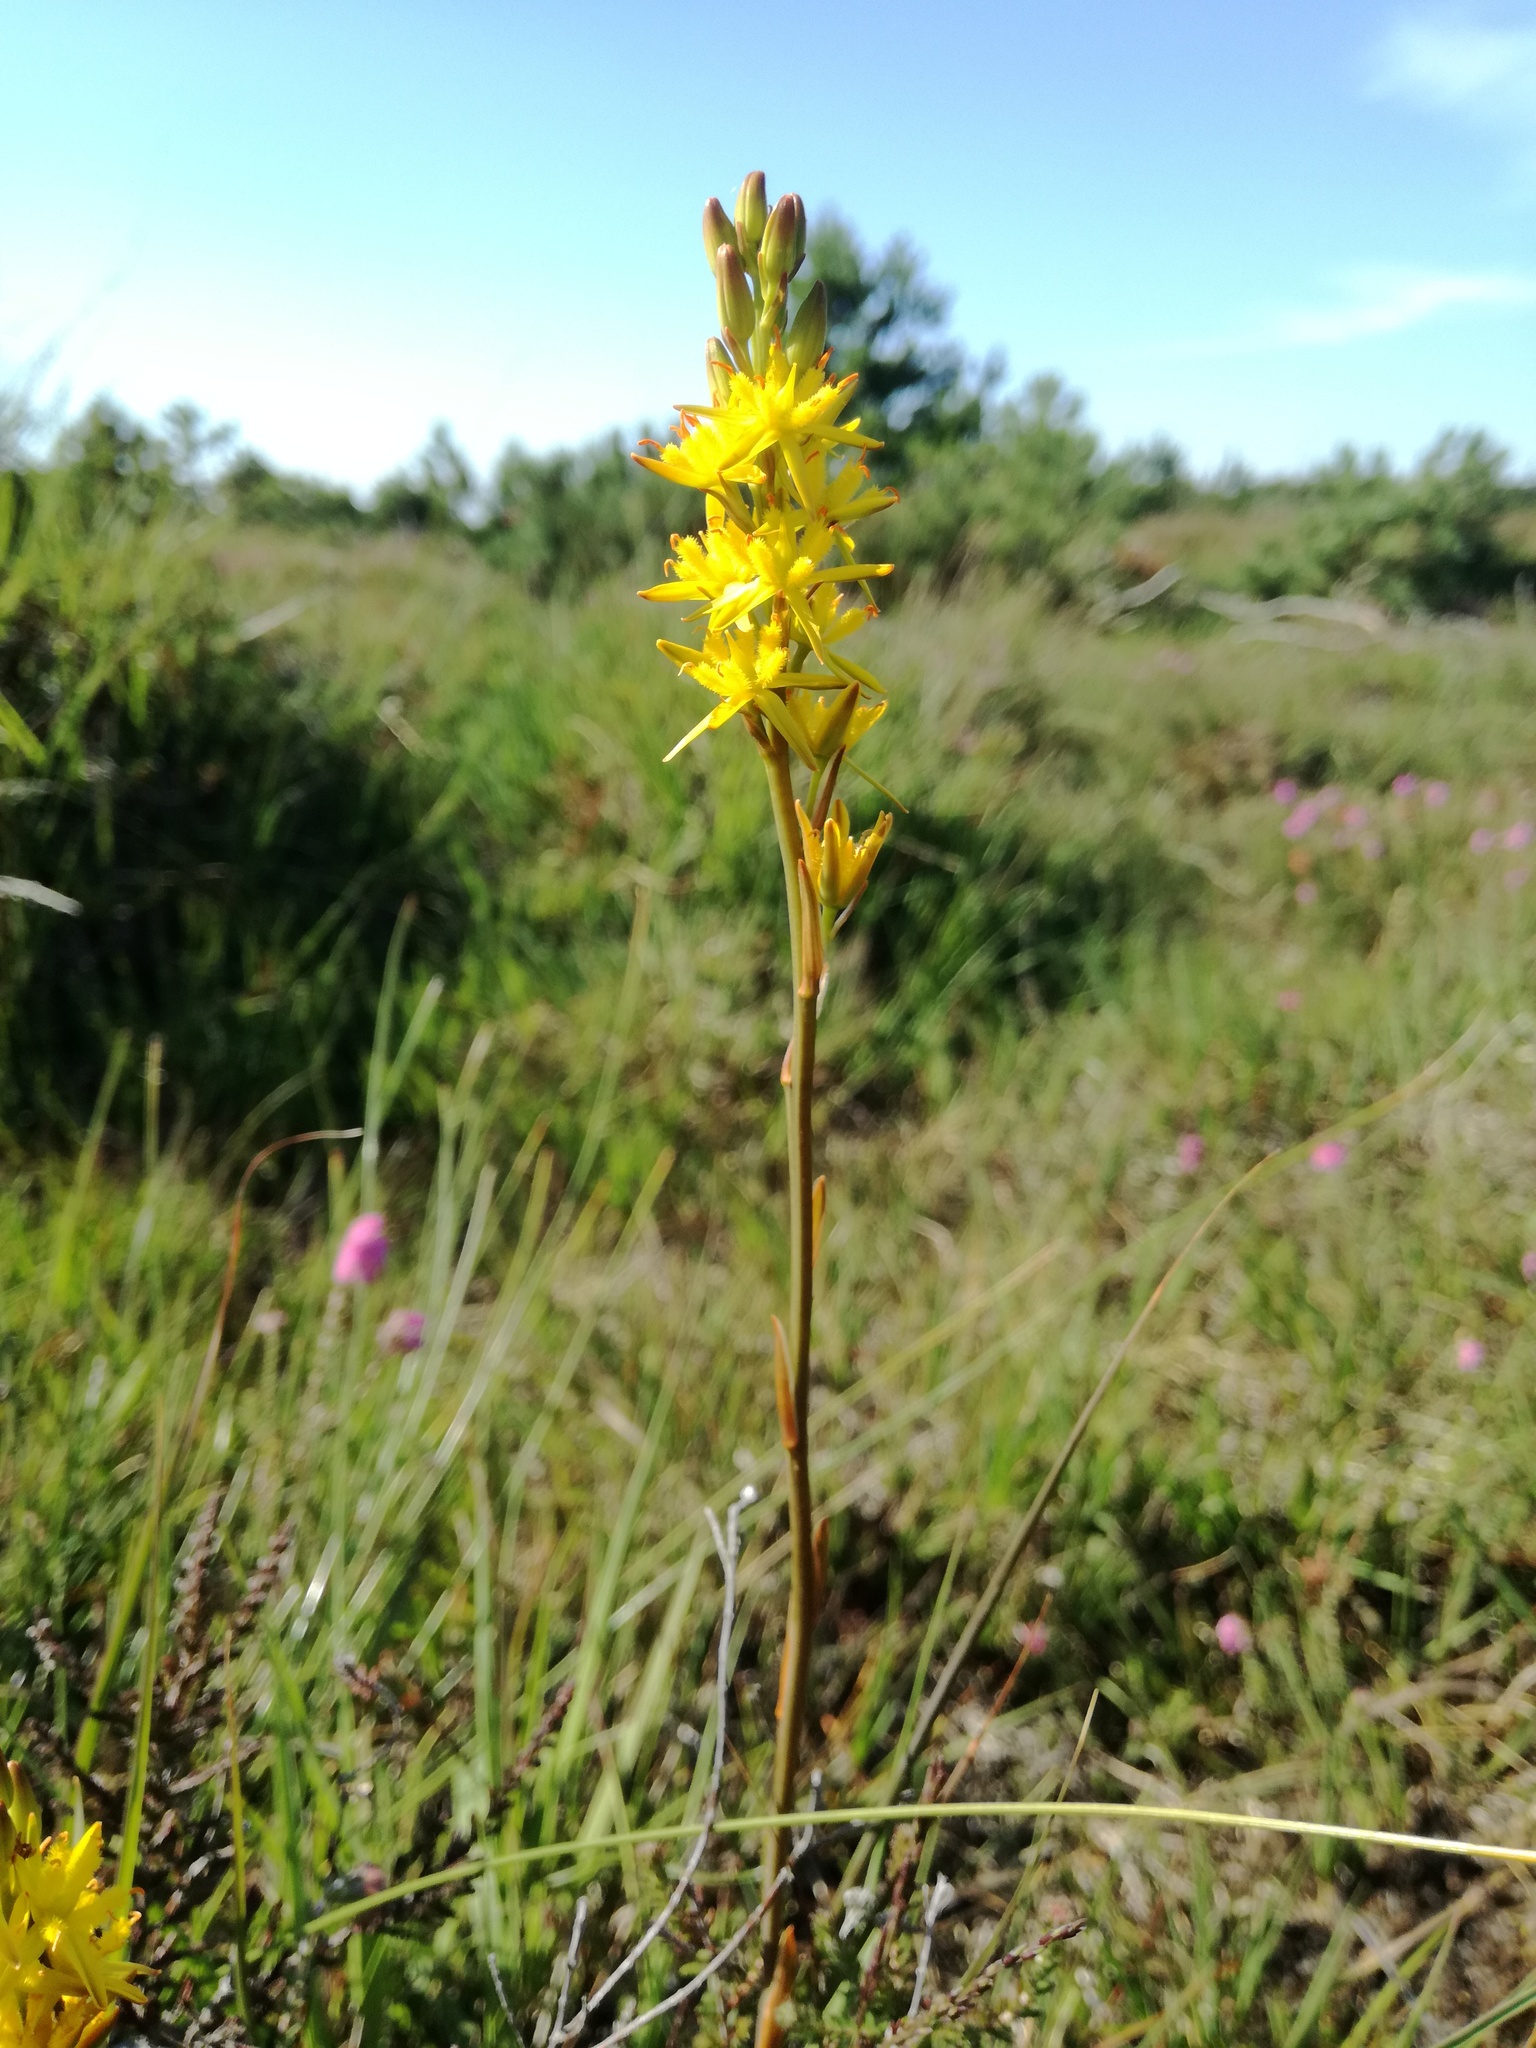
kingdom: Plantae
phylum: Tracheophyta
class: Liliopsida
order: Dioscoreales
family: Nartheciaceae
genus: Narthecium
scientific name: Narthecium ossifragum
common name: Bog asphodel
